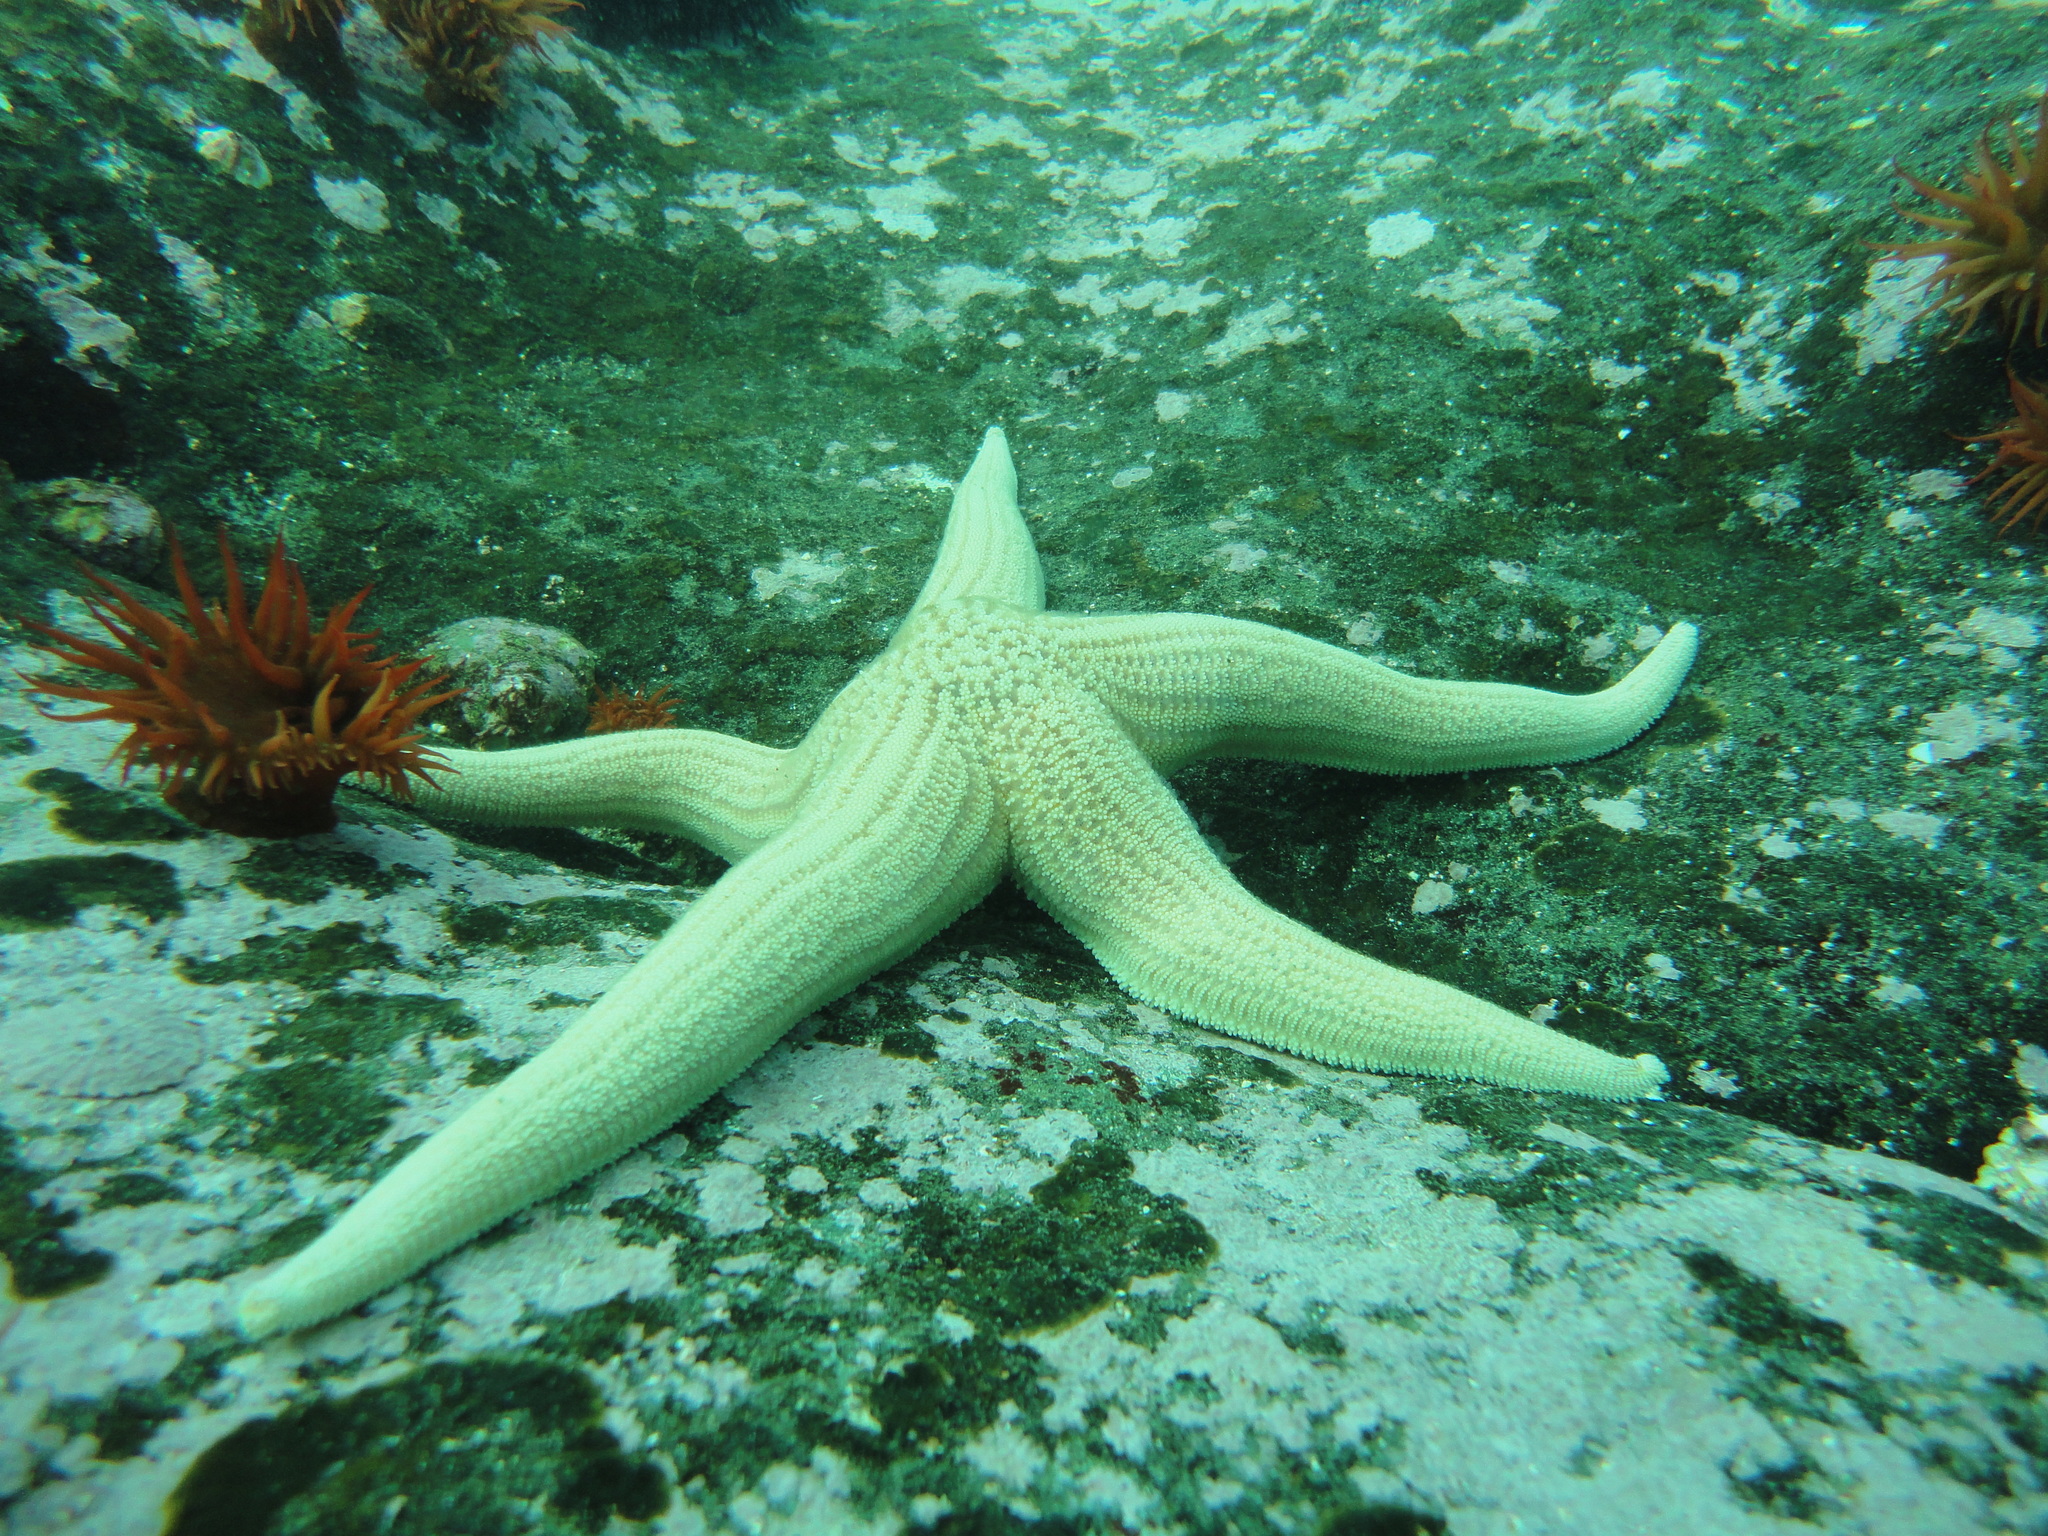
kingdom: Animalia
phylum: Echinodermata
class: Asteroidea
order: Forcipulatida
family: Stichasteridae
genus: Stichaster
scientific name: Stichaster striatus
